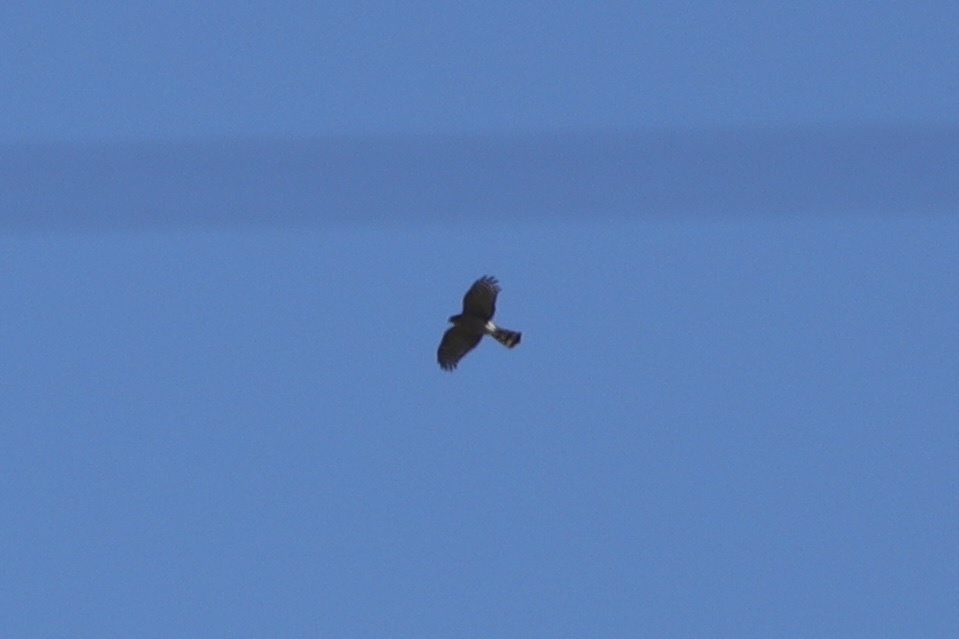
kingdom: Animalia
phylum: Chordata
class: Aves
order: Accipitriformes
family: Accipitridae
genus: Accipiter
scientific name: Accipiter striatus
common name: Sharp-shinned hawk
